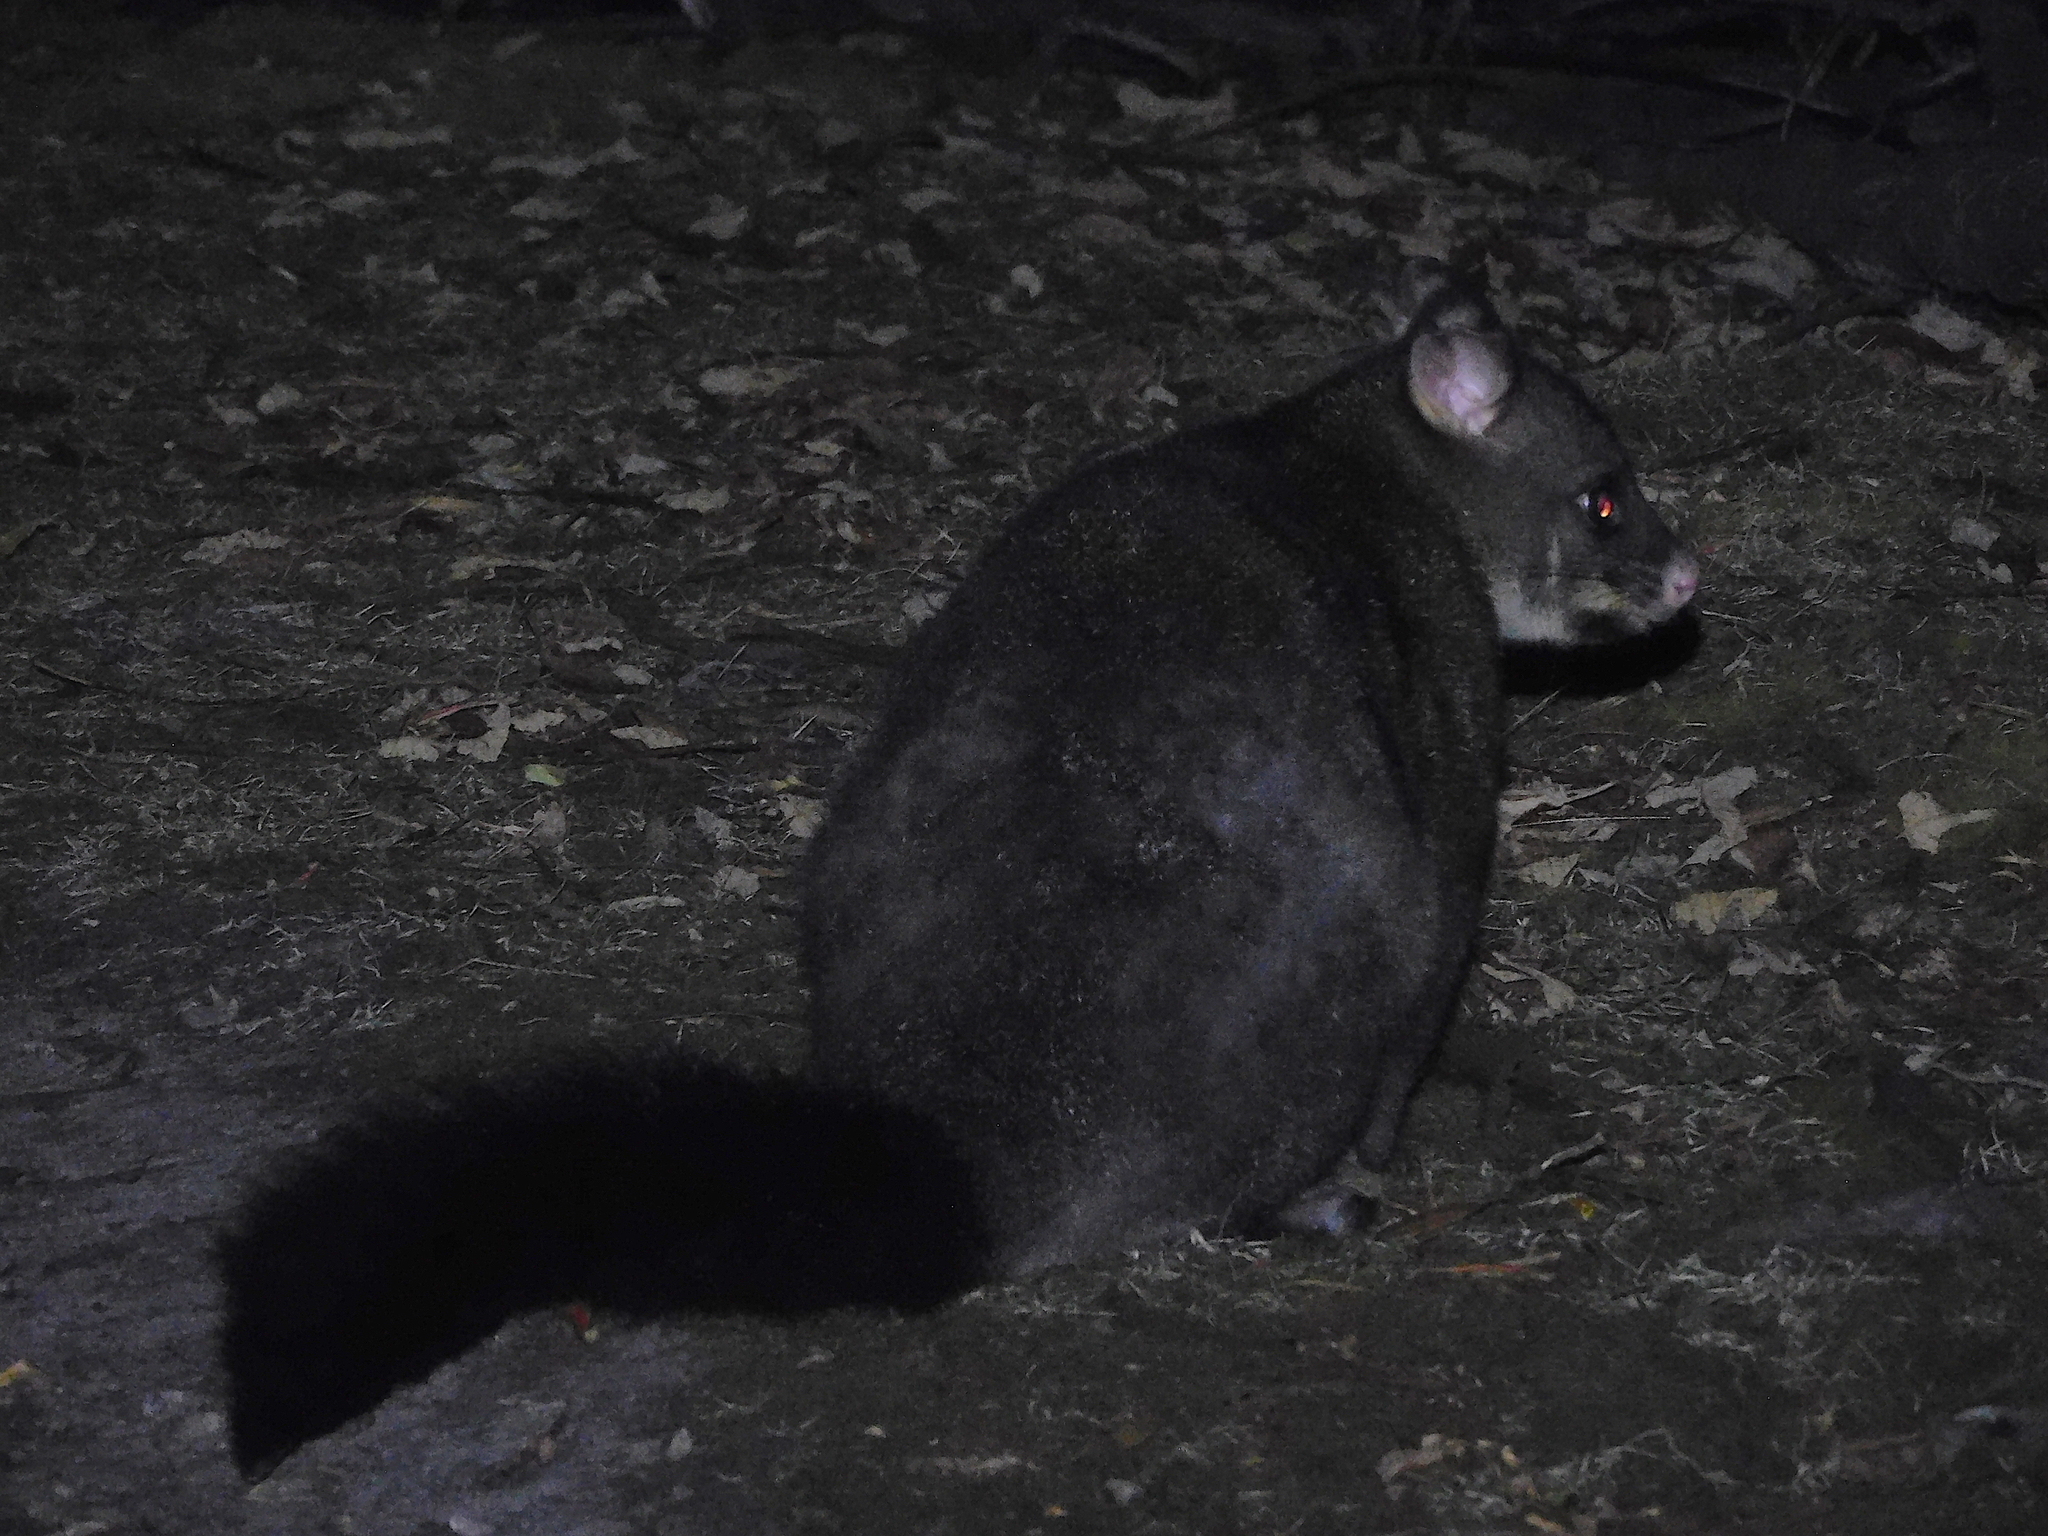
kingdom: Animalia
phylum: Chordata
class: Mammalia
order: Diprotodontia
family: Phalangeridae
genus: Trichosurus
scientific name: Trichosurus vulpecula
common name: Common brushtail
